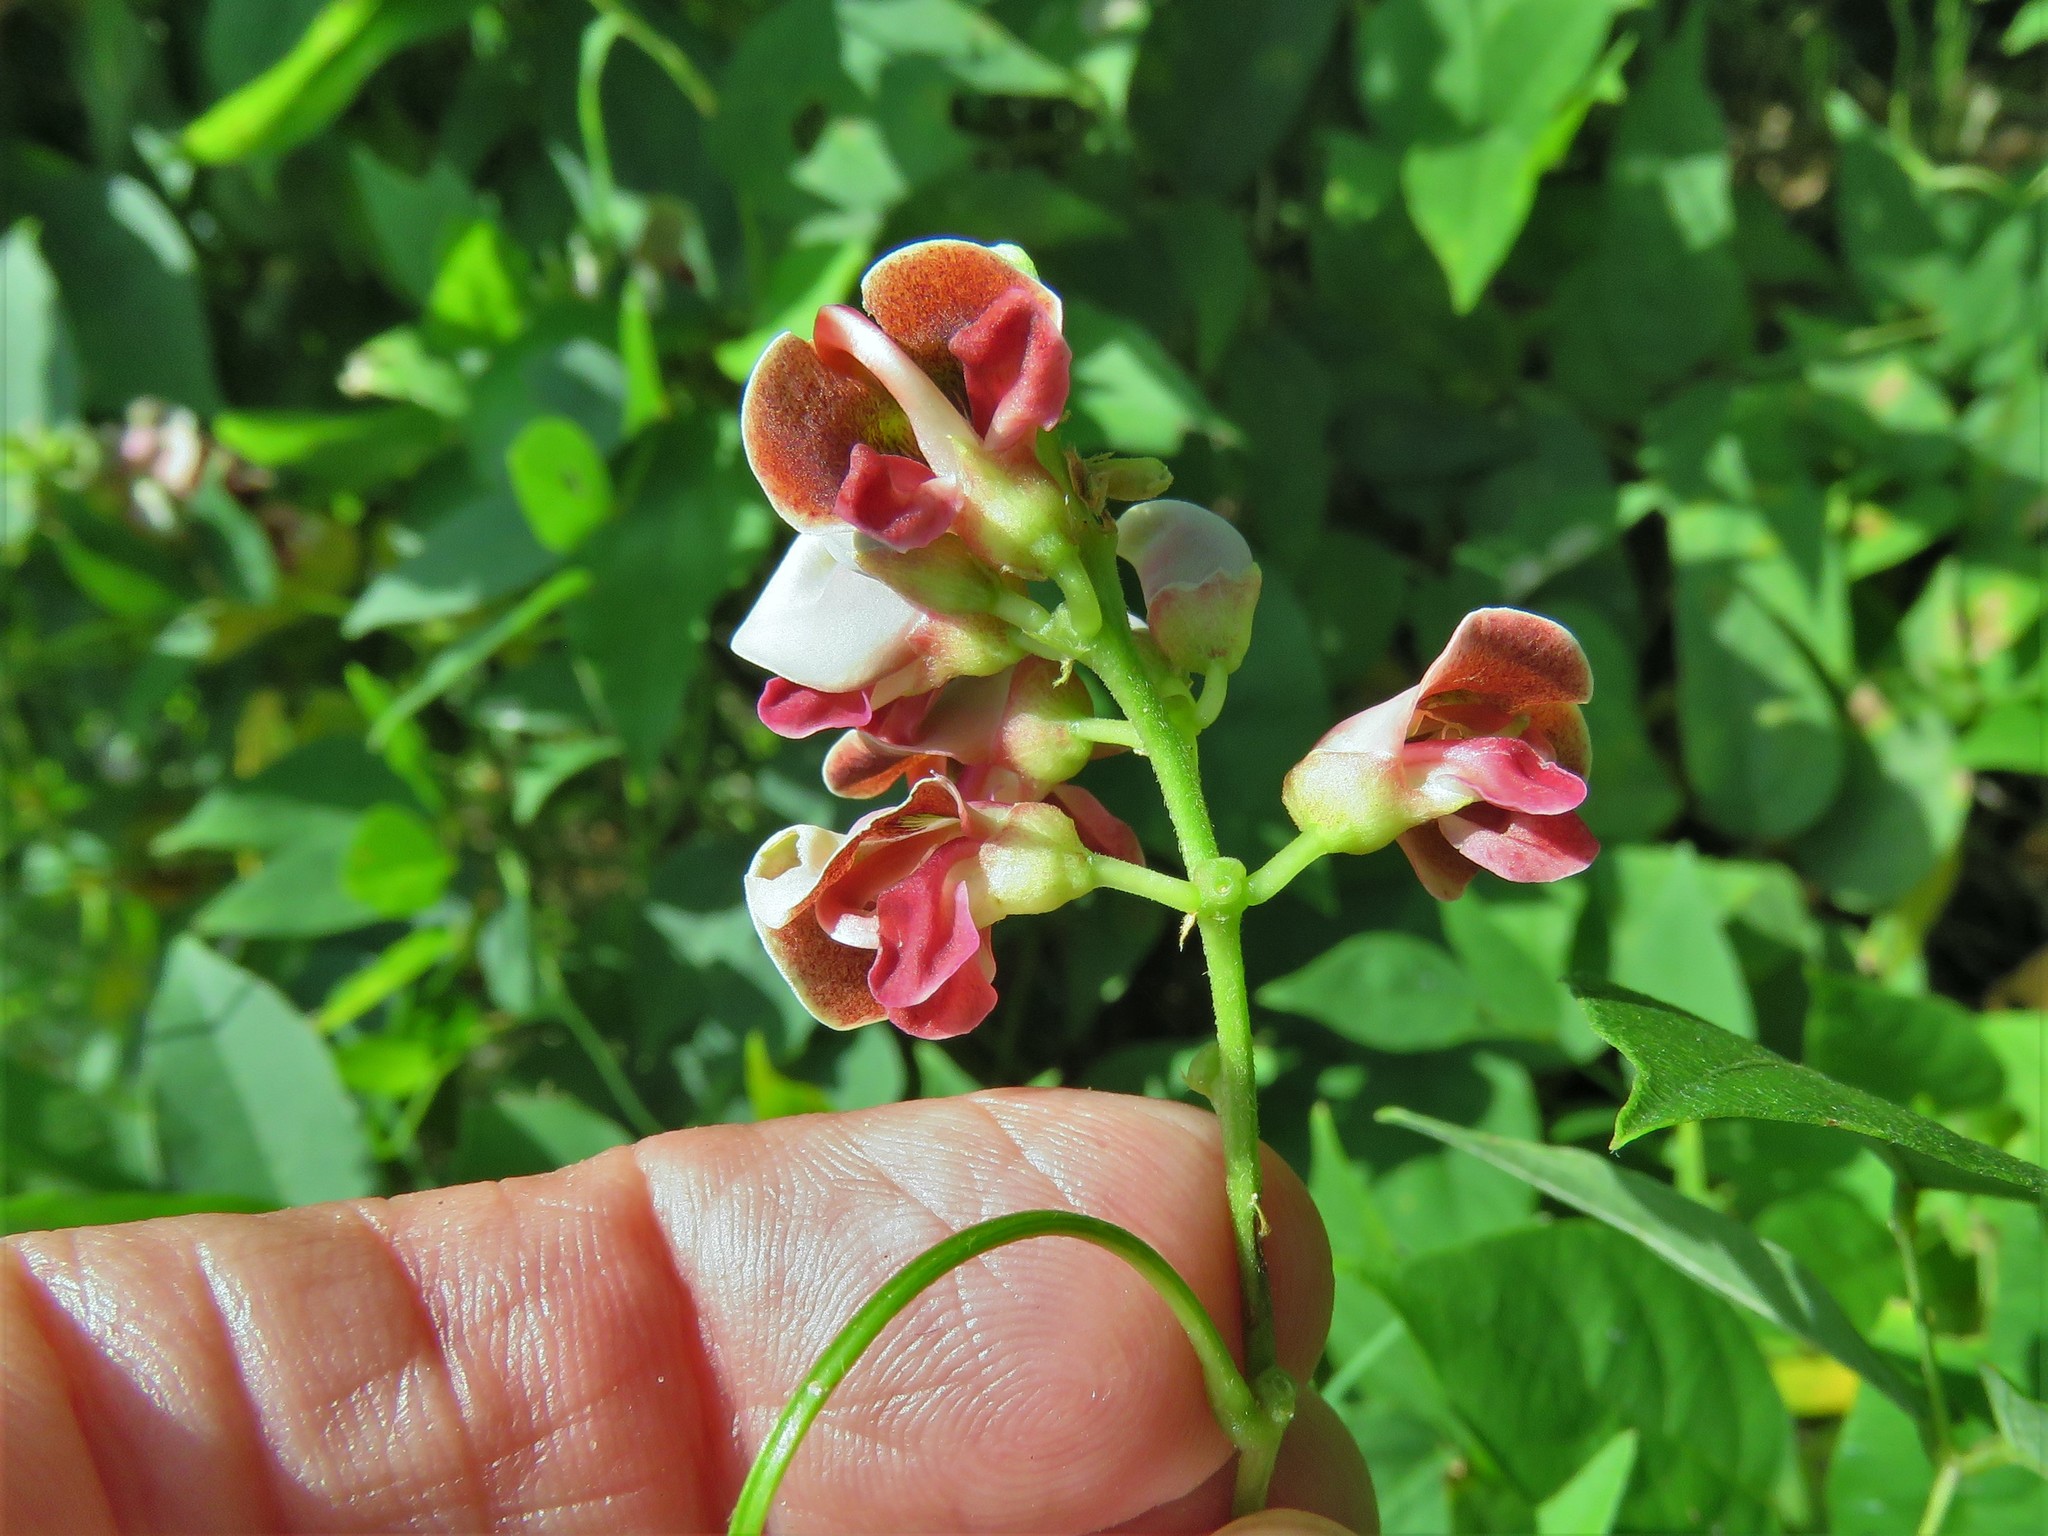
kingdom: Plantae
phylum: Tracheophyta
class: Magnoliopsida
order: Fabales
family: Fabaceae
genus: Apios
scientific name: Apios americana
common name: American potato-bean
